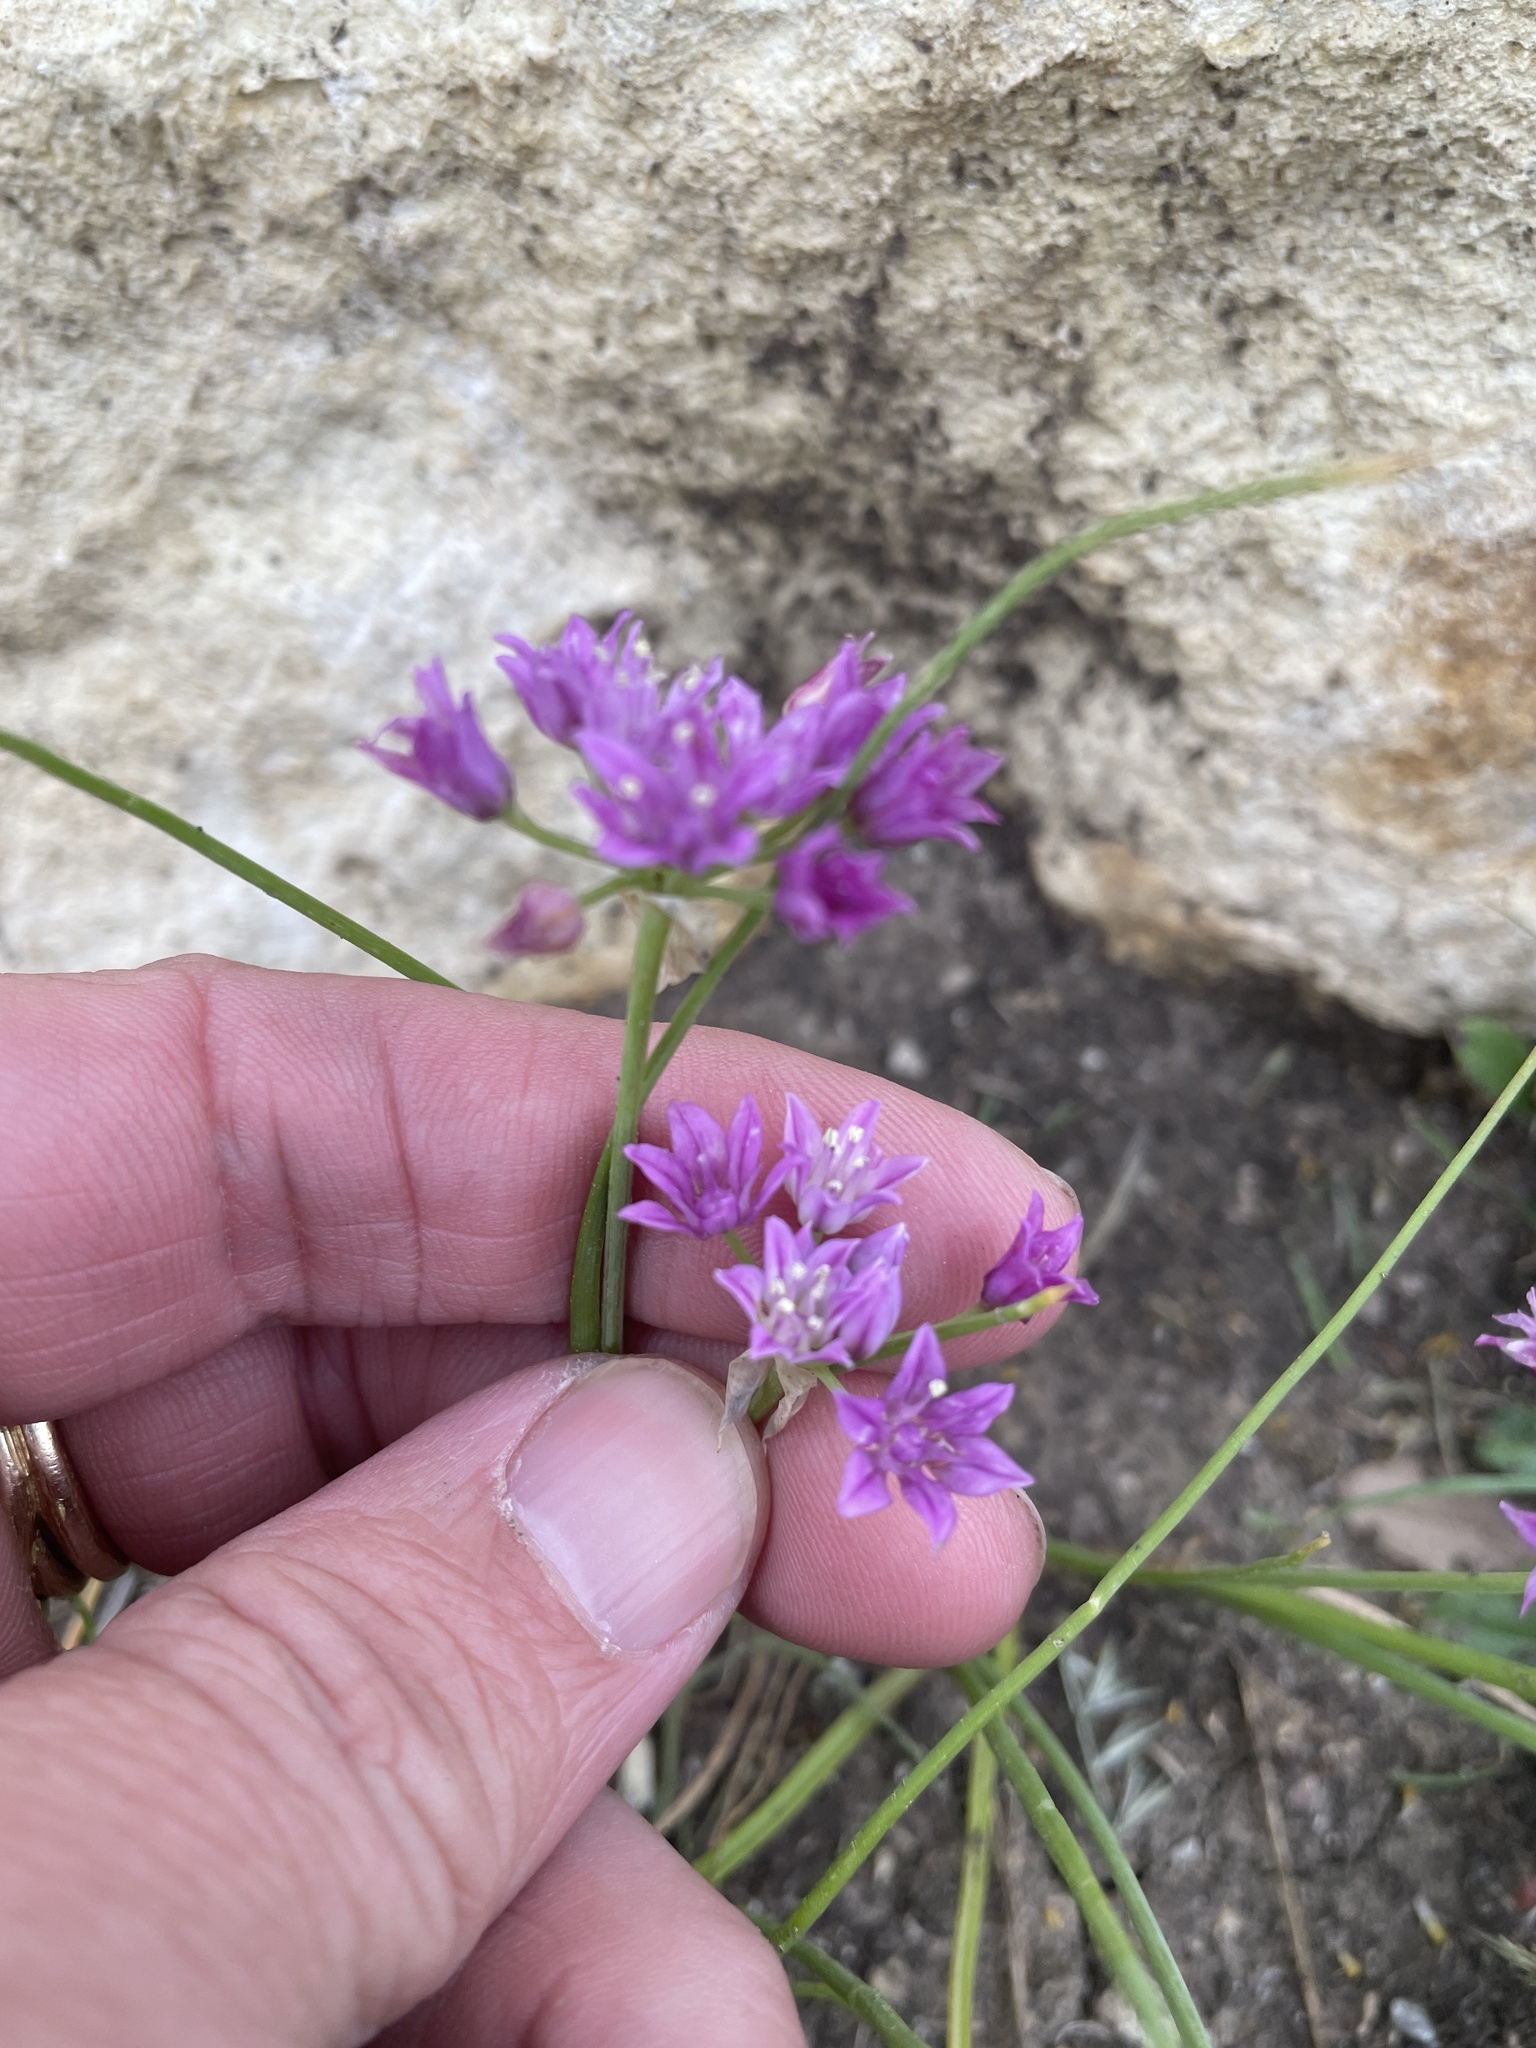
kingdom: Plantae
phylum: Tracheophyta
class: Liliopsida
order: Asparagales
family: Amaryllidaceae
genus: Allium
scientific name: Allium drummondii
